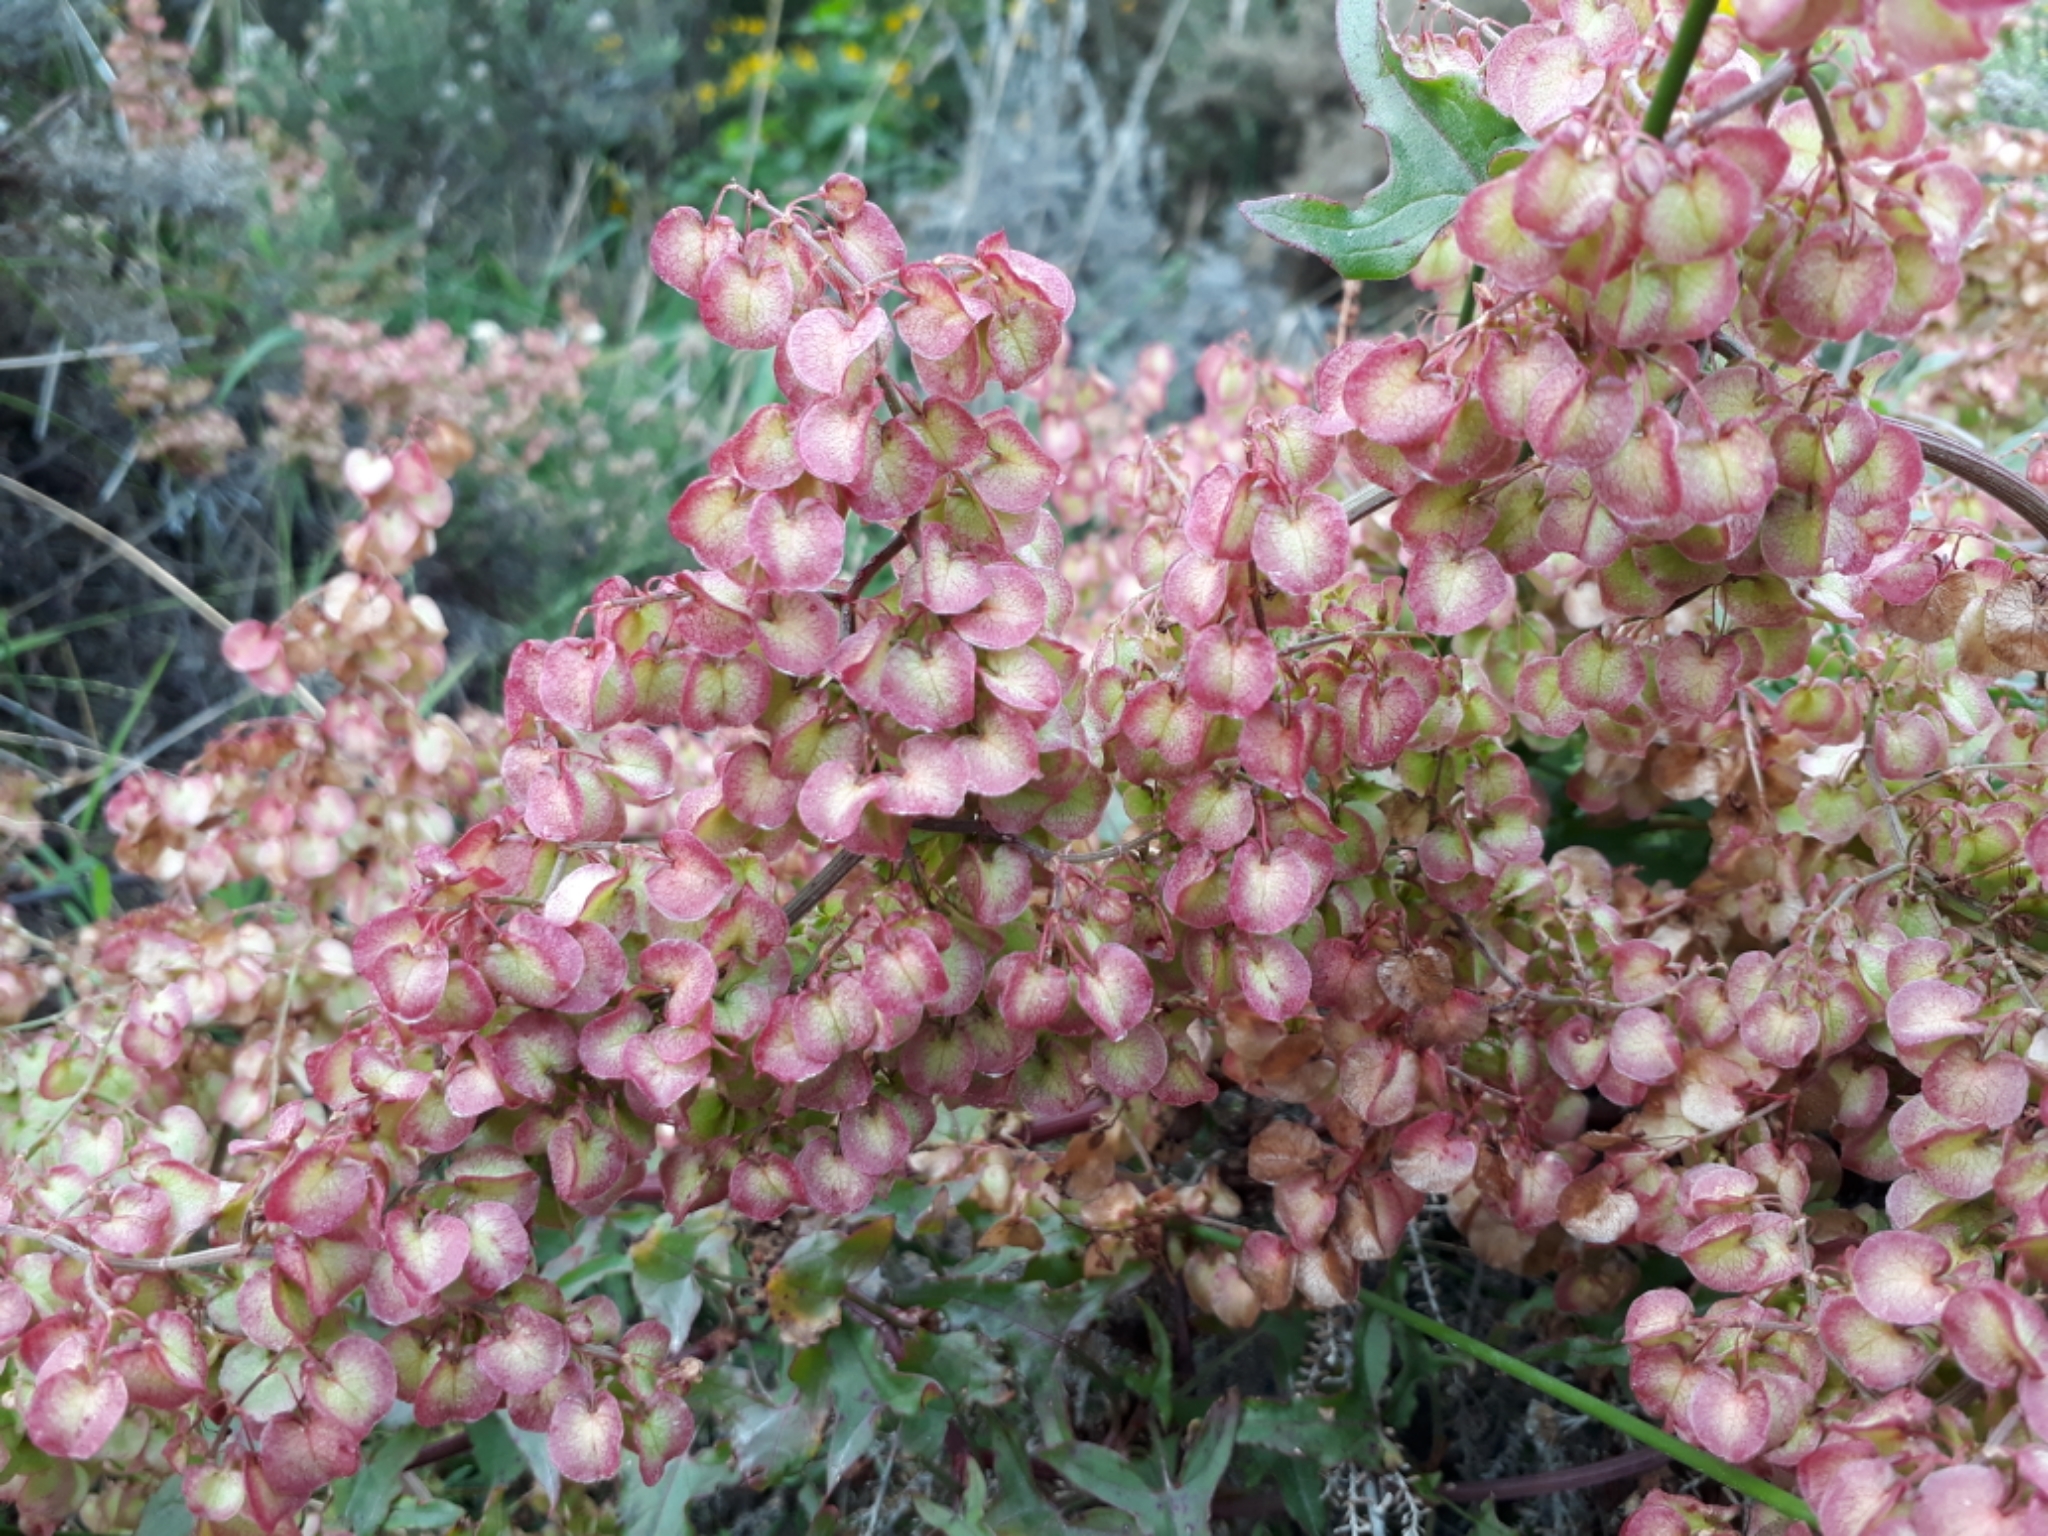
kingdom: Plantae
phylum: Tracheophyta
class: Magnoliopsida
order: Caryophyllales
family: Polygonaceae
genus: Rumex
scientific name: Rumex sagittatus
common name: Climbing dock
